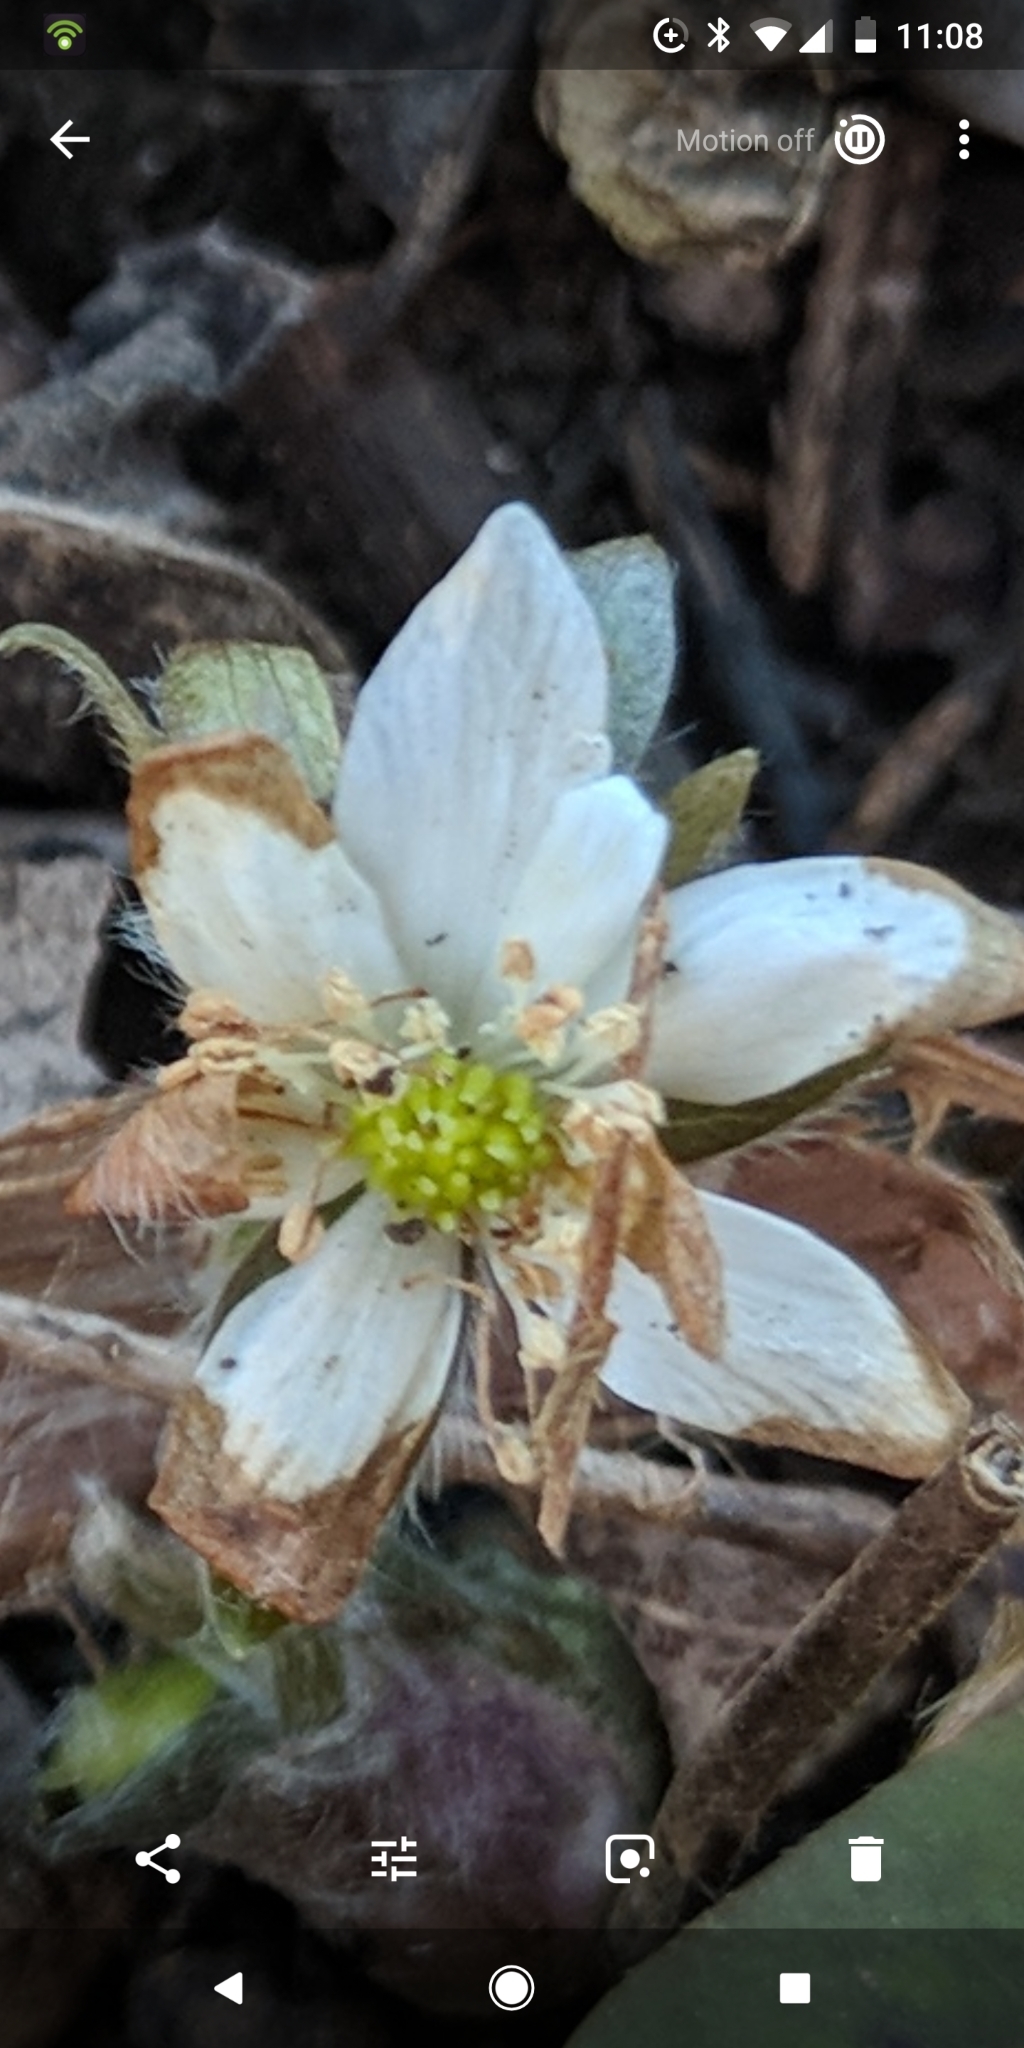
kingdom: Plantae
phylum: Tracheophyta
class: Magnoliopsida
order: Ranunculales
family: Ranunculaceae
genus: Hepatica
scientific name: Hepatica acutiloba
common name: Sharp-lobed hepatica
